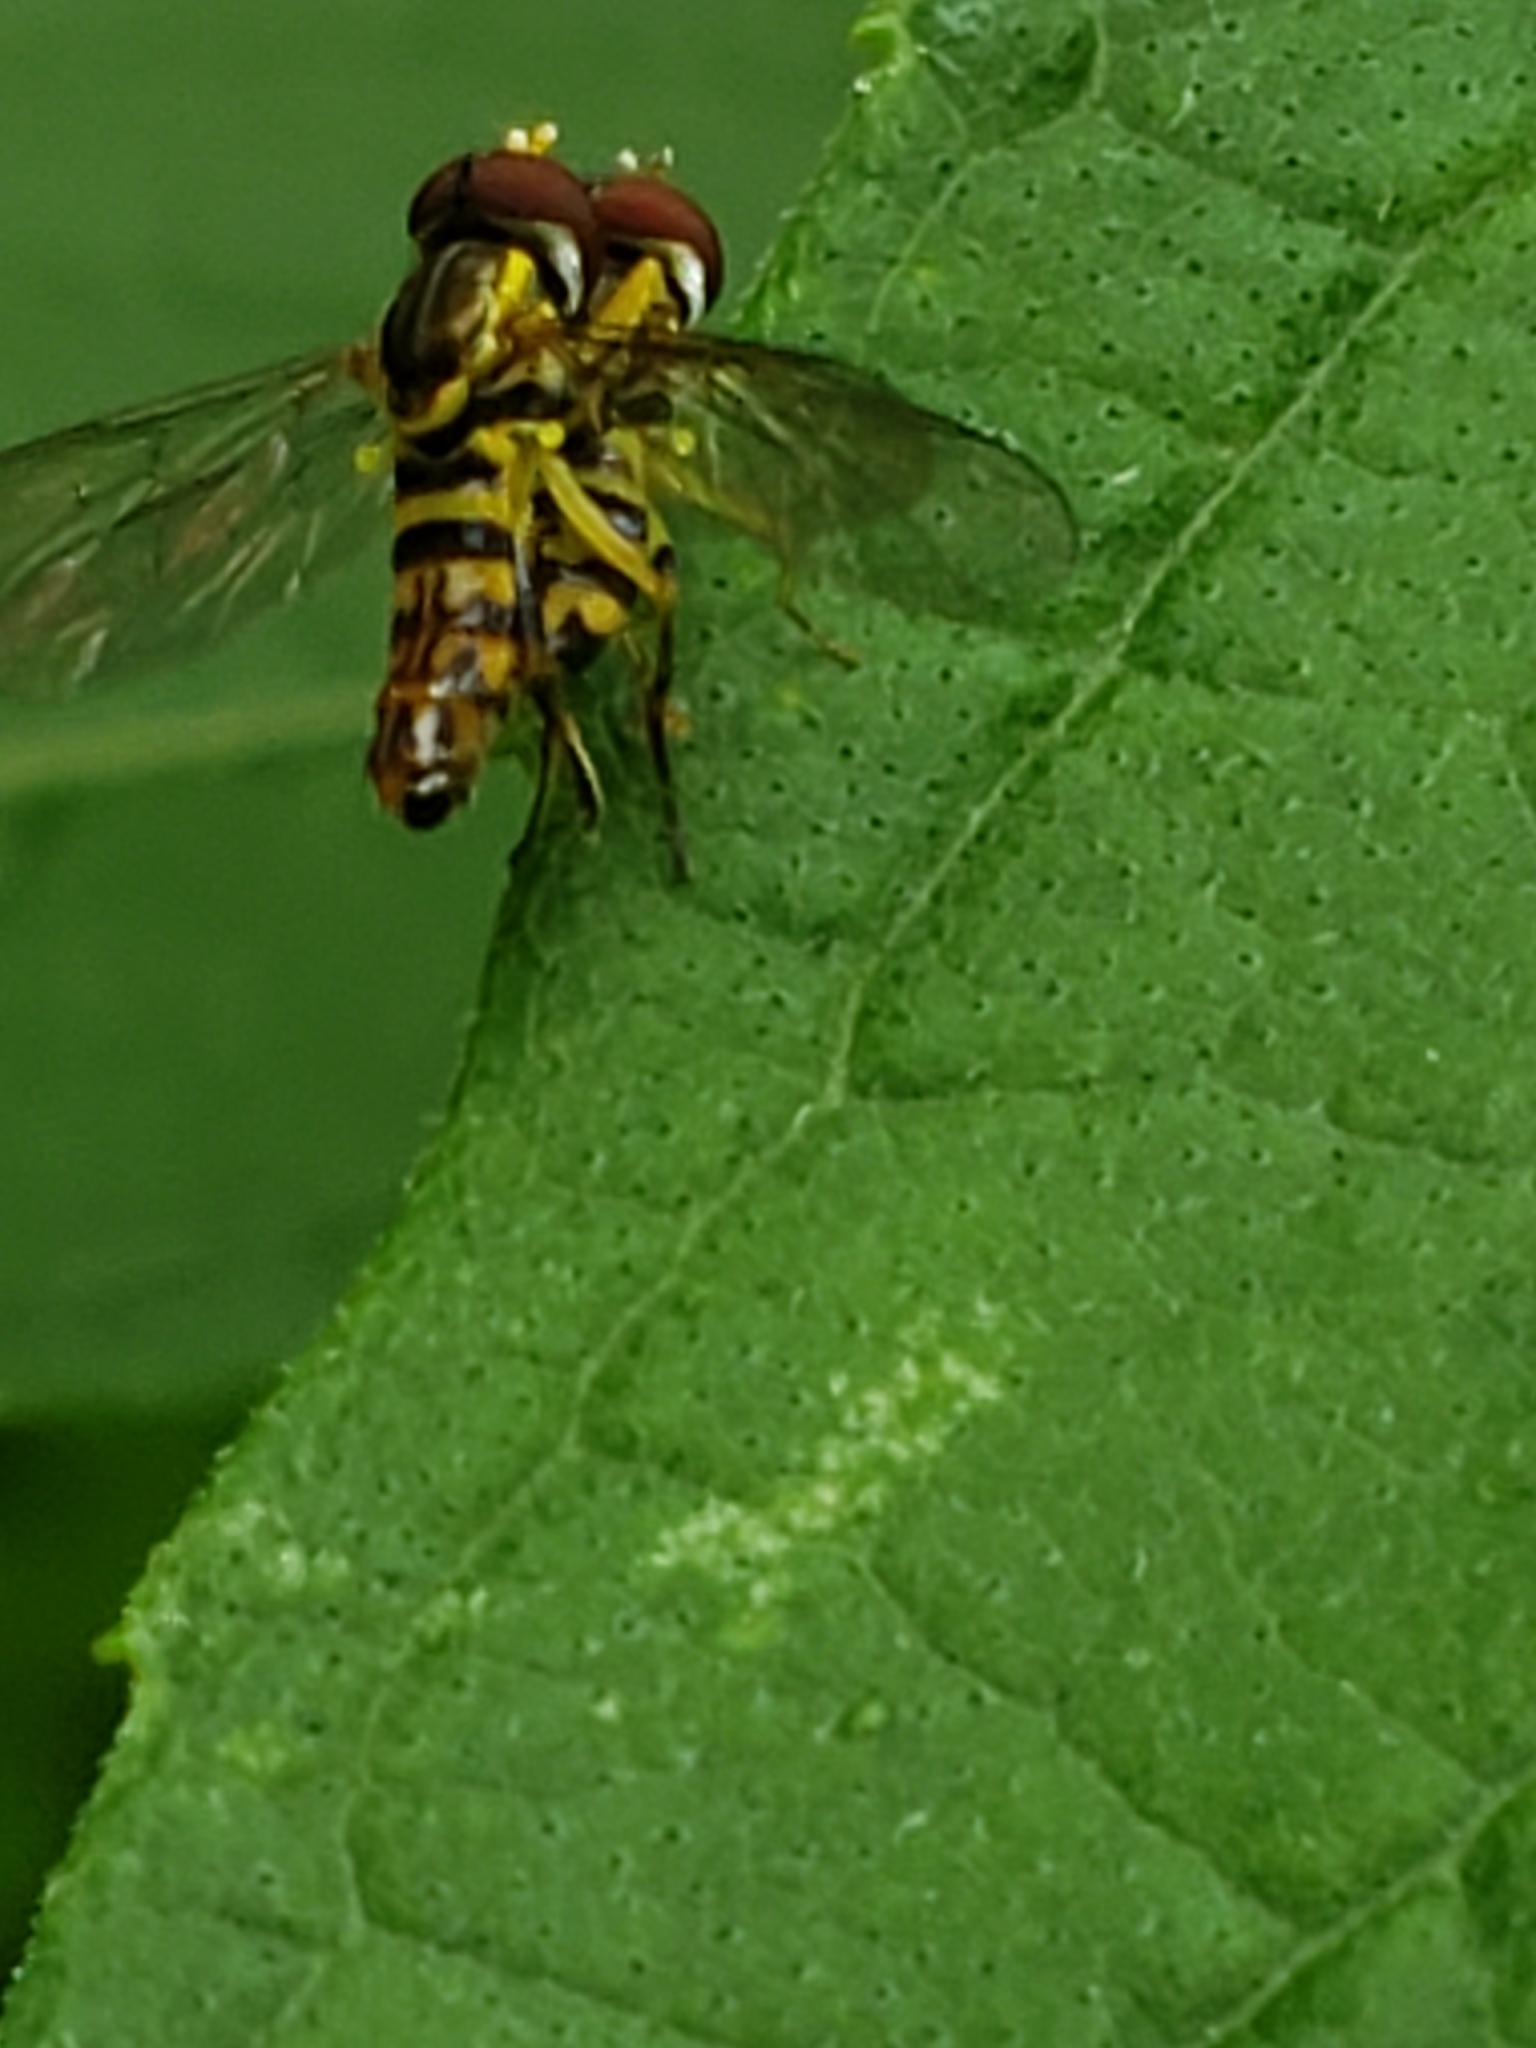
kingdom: Animalia
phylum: Arthropoda
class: Insecta
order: Diptera
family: Syrphidae
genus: Toxomerus
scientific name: Toxomerus geminatus
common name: Eastern calligrapher
